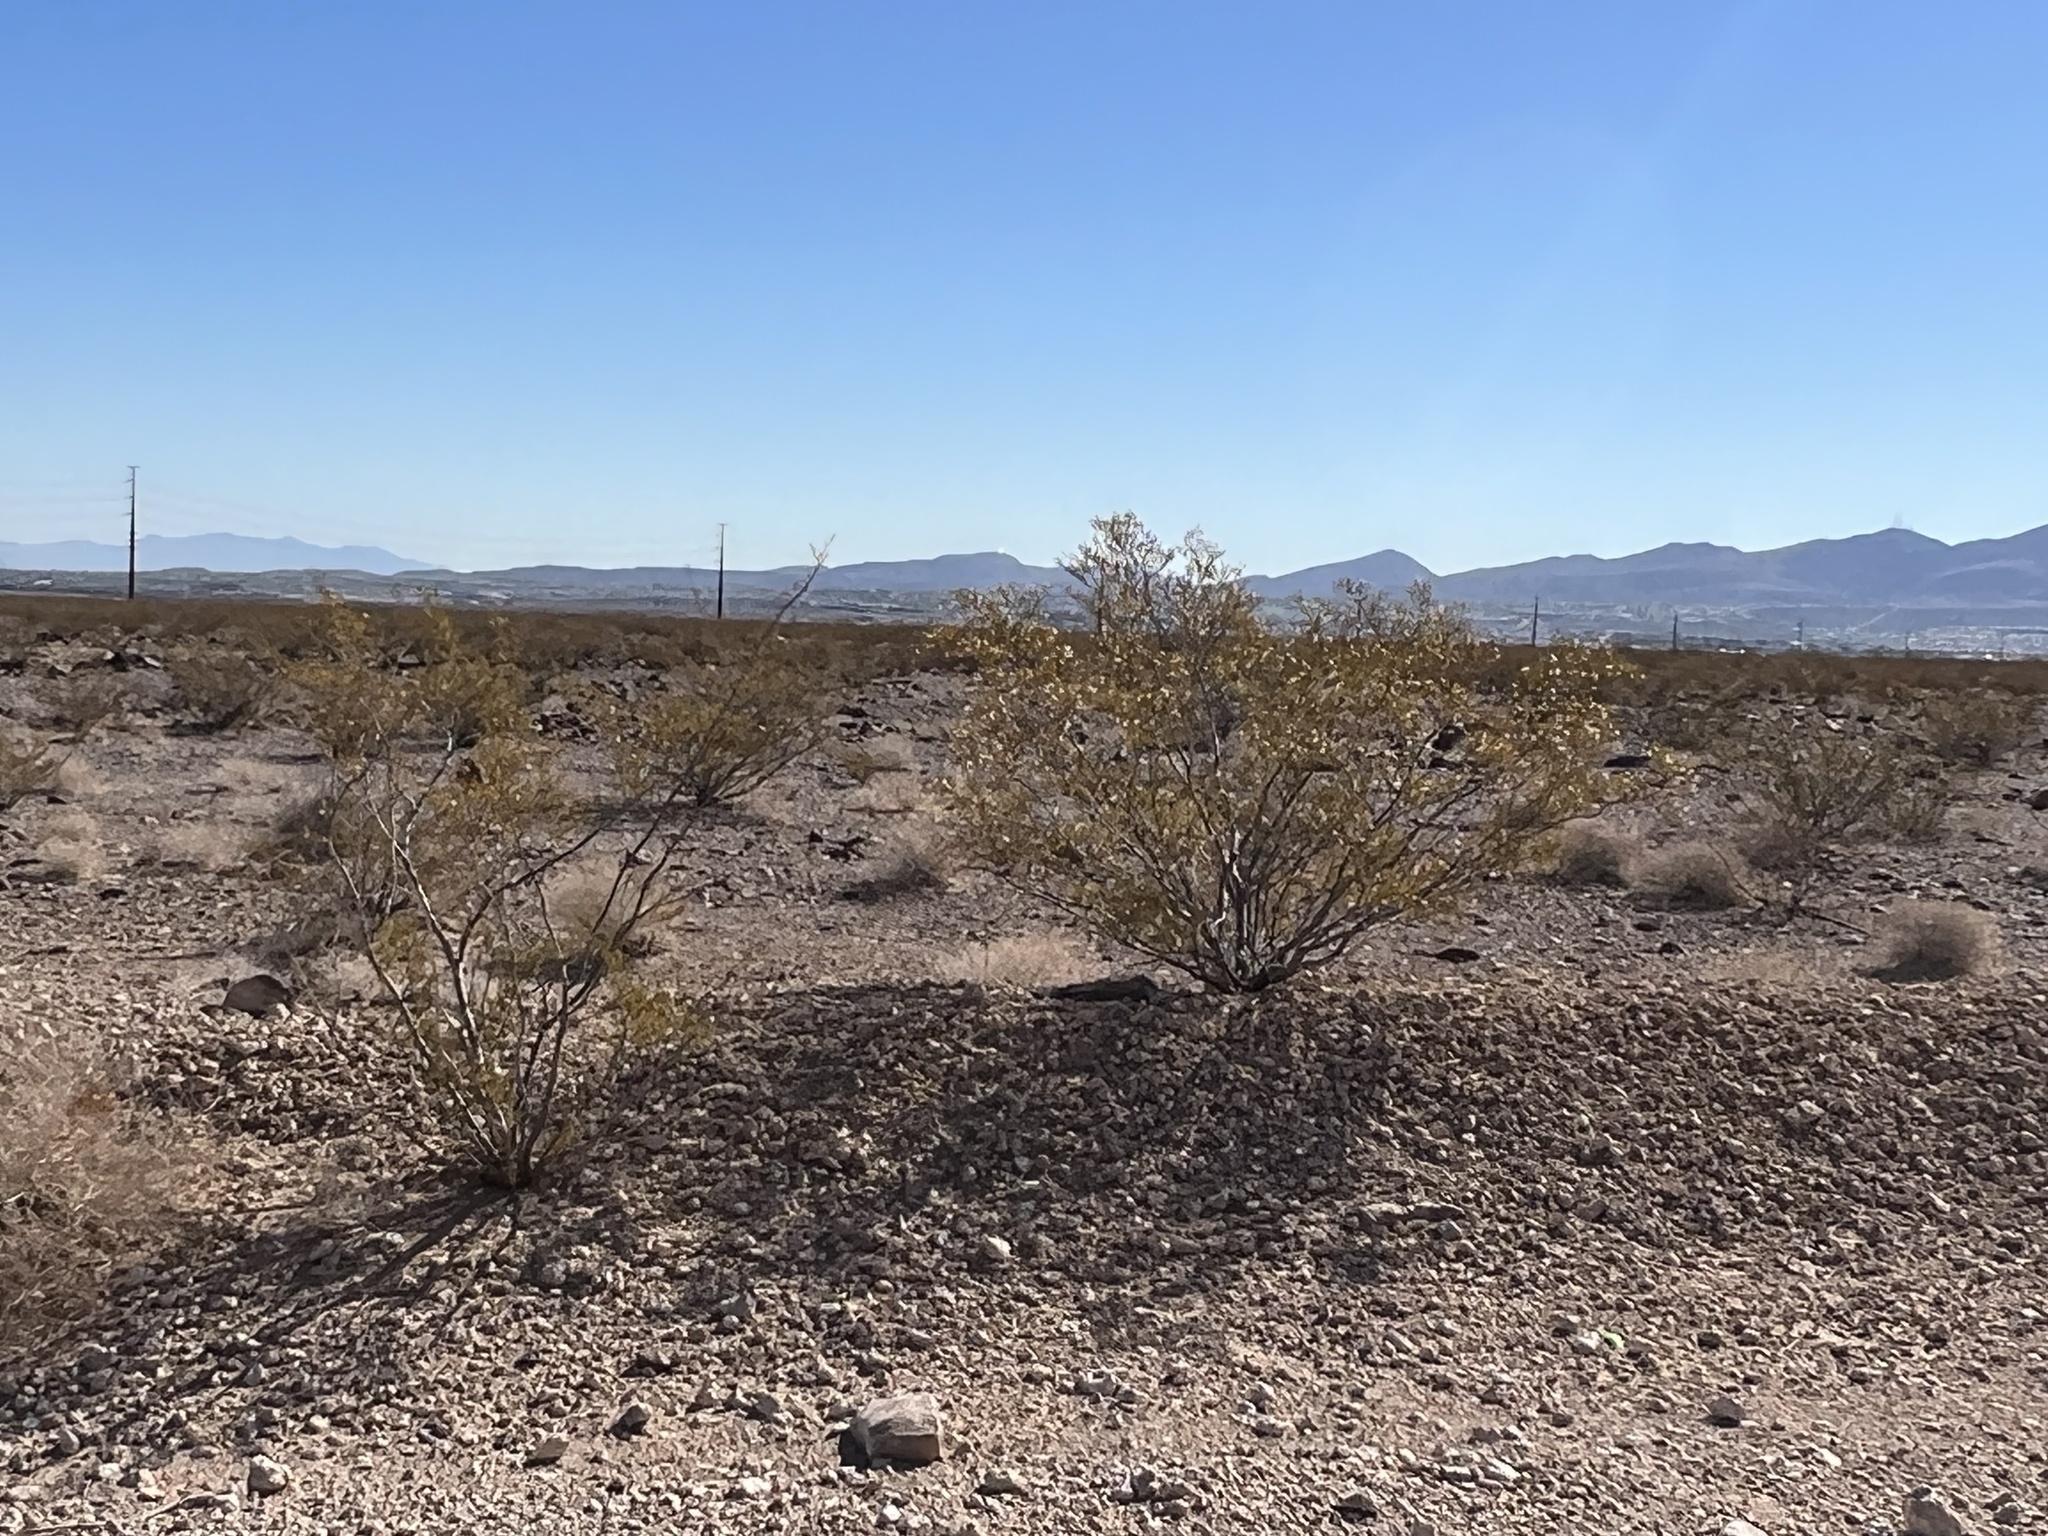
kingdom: Plantae
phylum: Tracheophyta
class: Magnoliopsida
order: Zygophyllales
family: Zygophyllaceae
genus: Larrea
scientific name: Larrea tridentata
